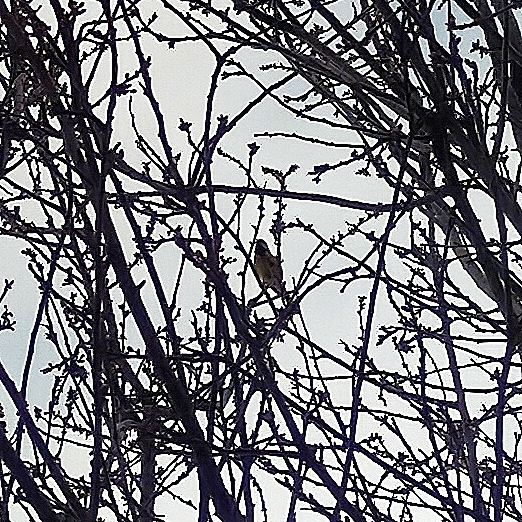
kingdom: Animalia
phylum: Chordata
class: Aves
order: Passeriformes
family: Paridae
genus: Parus
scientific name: Parus major
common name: Great tit
